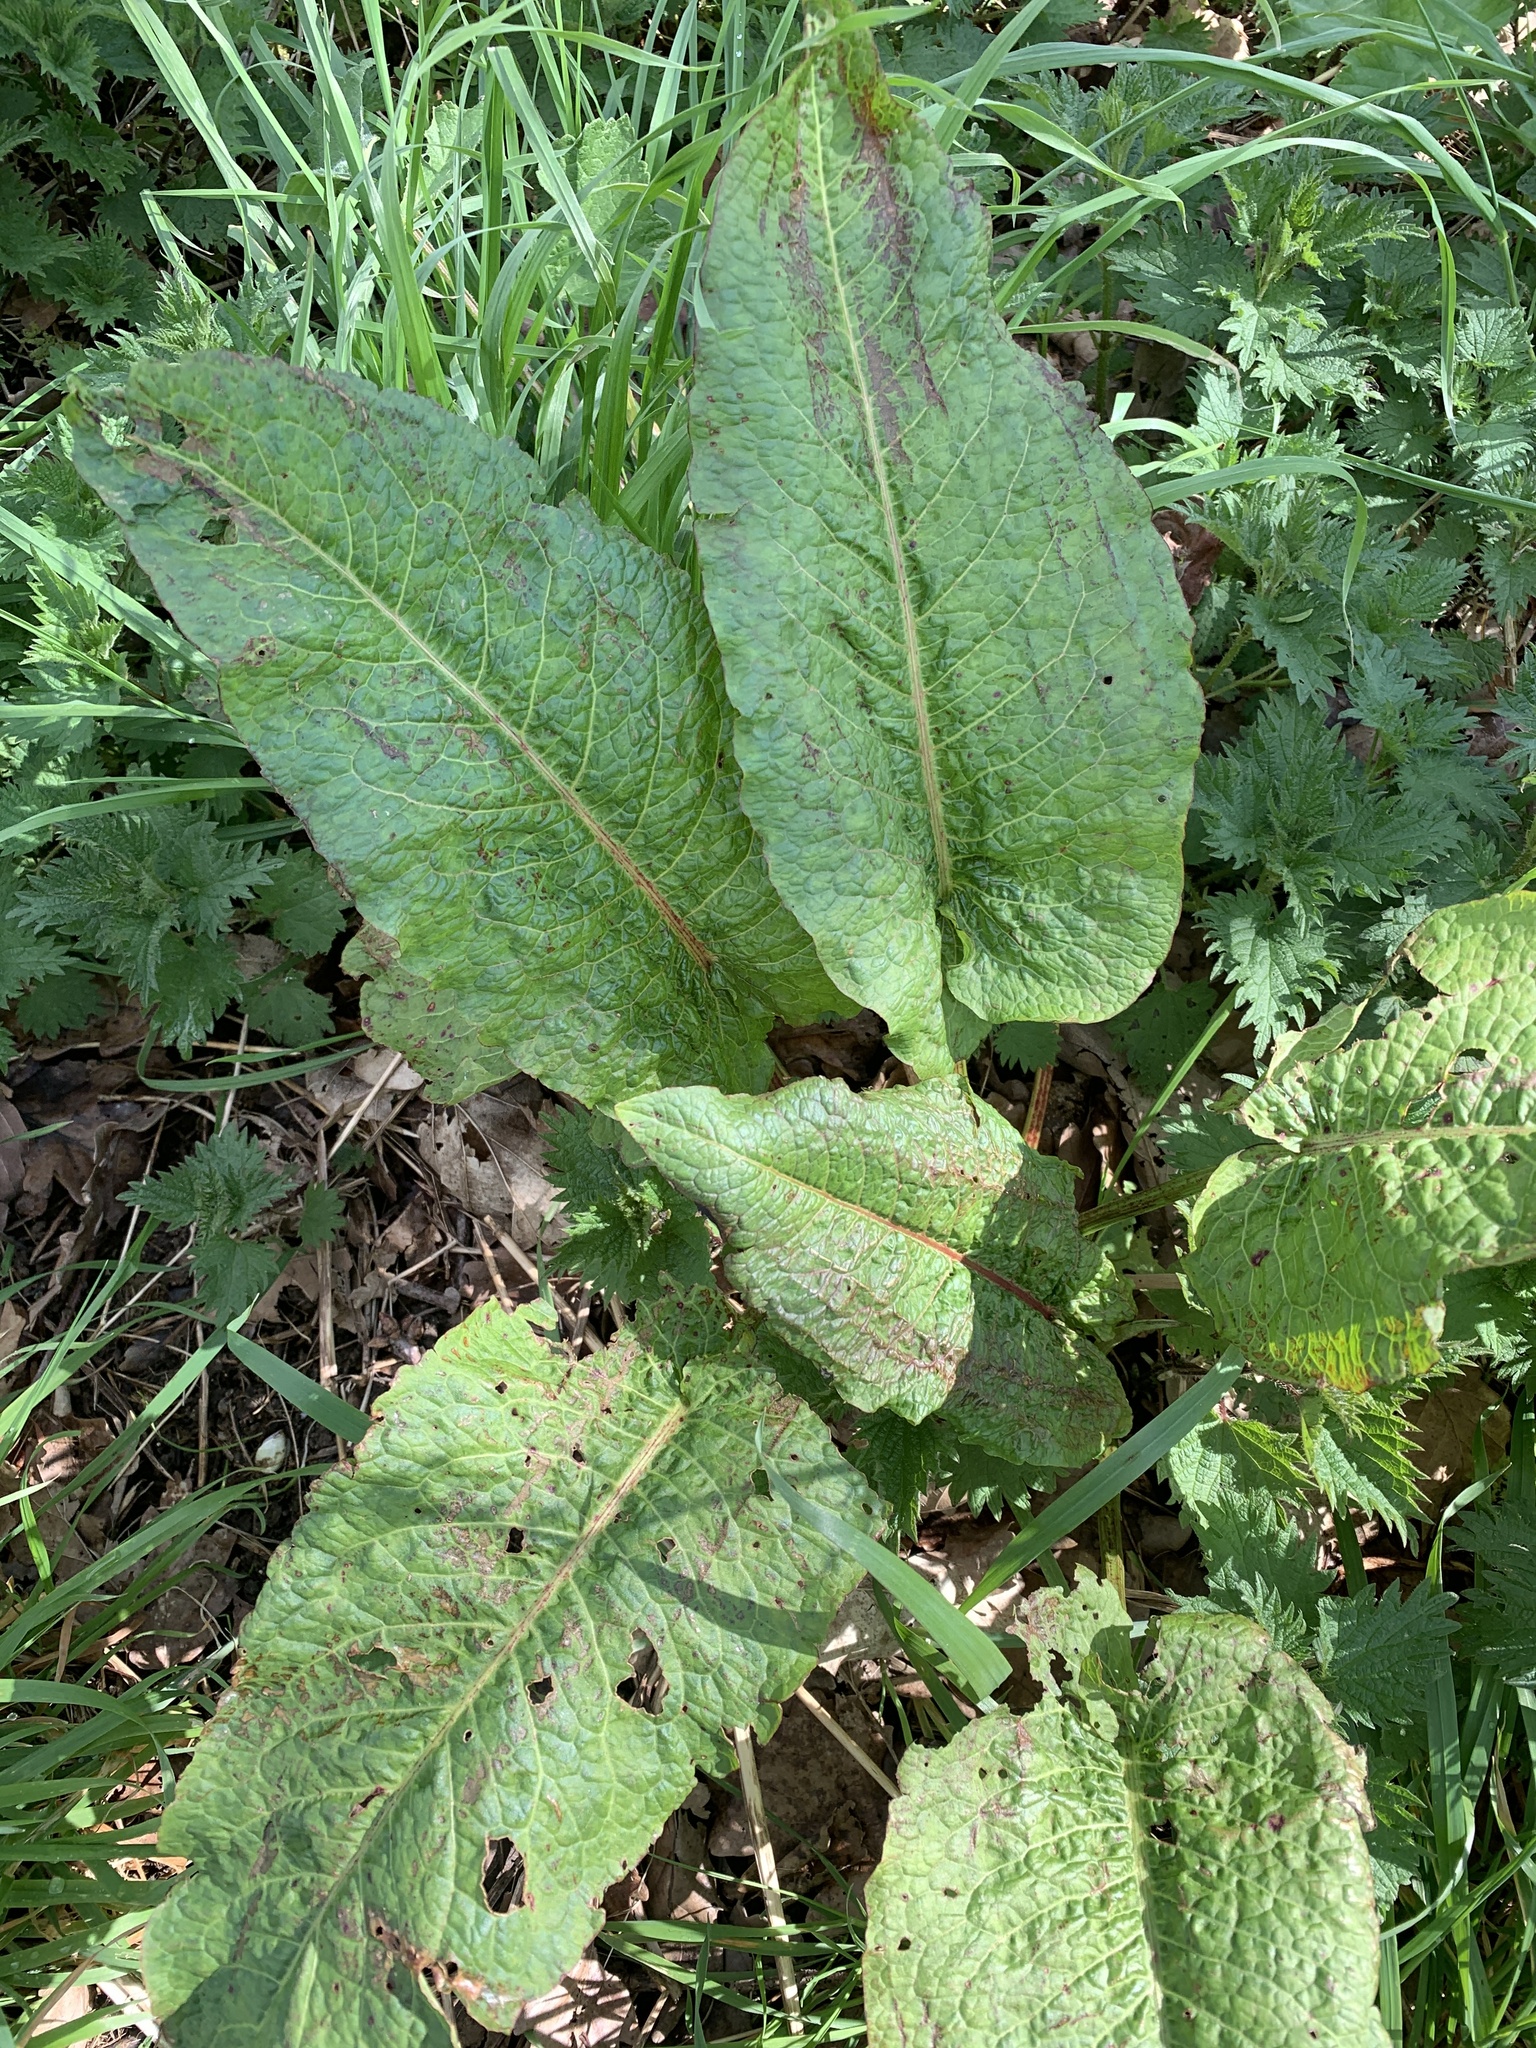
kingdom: Plantae
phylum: Tracheophyta
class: Magnoliopsida
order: Caryophyllales
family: Polygonaceae
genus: Rumex
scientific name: Rumex obtusifolius
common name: Bitter dock
